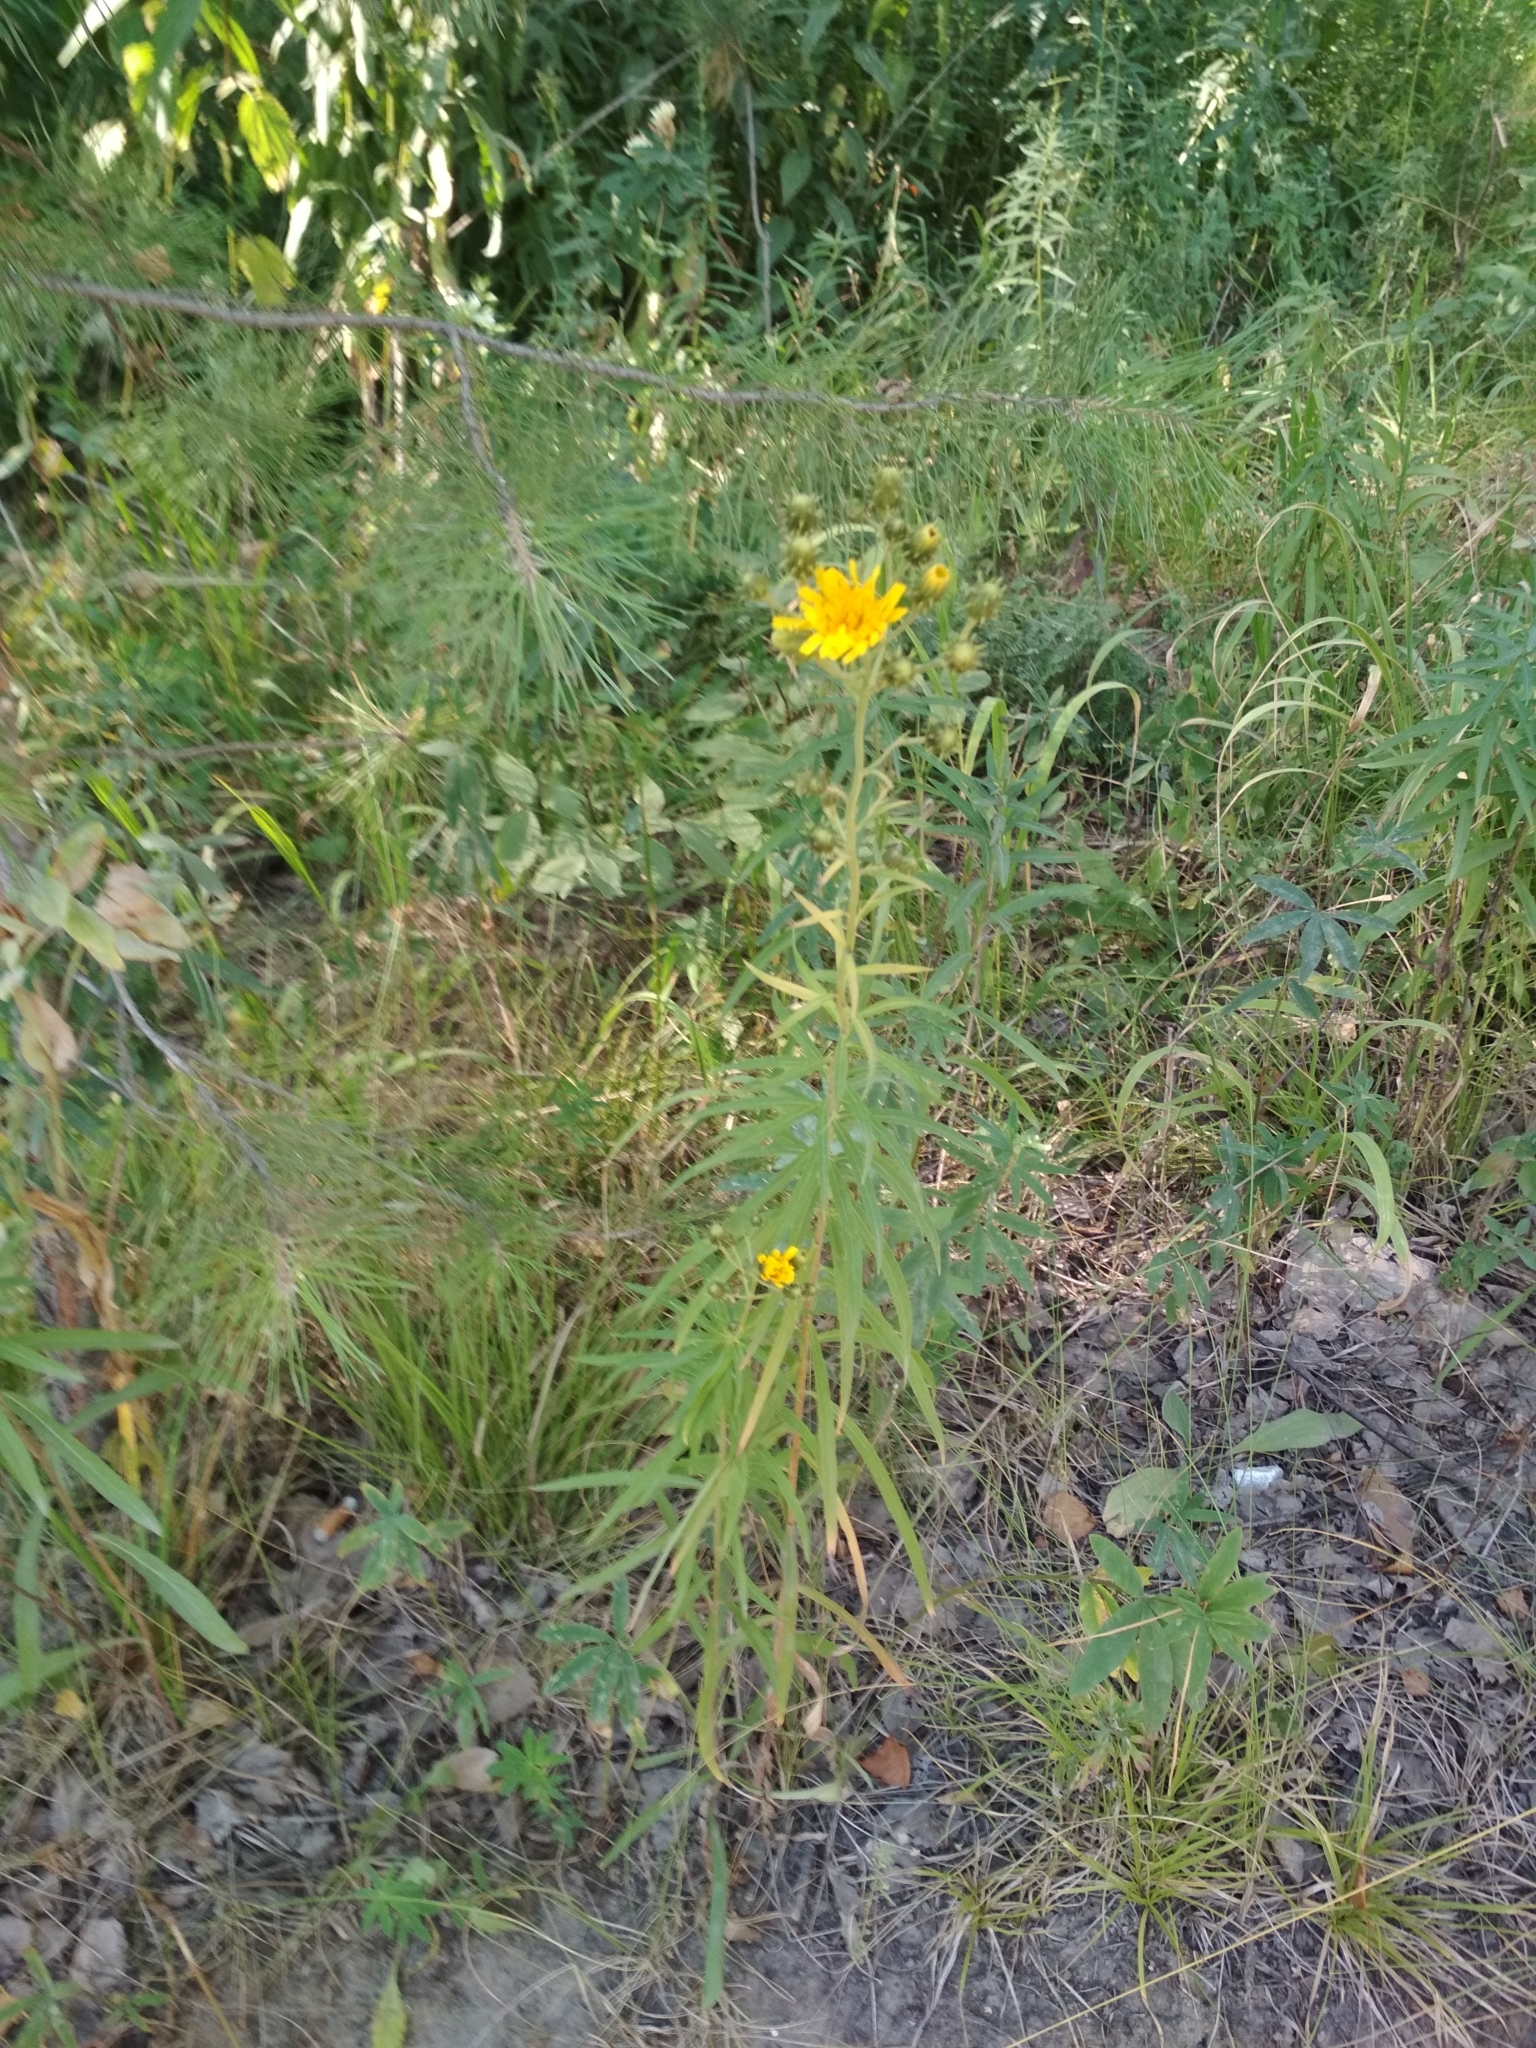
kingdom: Plantae
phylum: Tracheophyta
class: Magnoliopsida
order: Asterales
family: Asteraceae
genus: Hieracium
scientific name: Hieracium umbellatum
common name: Northern hawkweed
